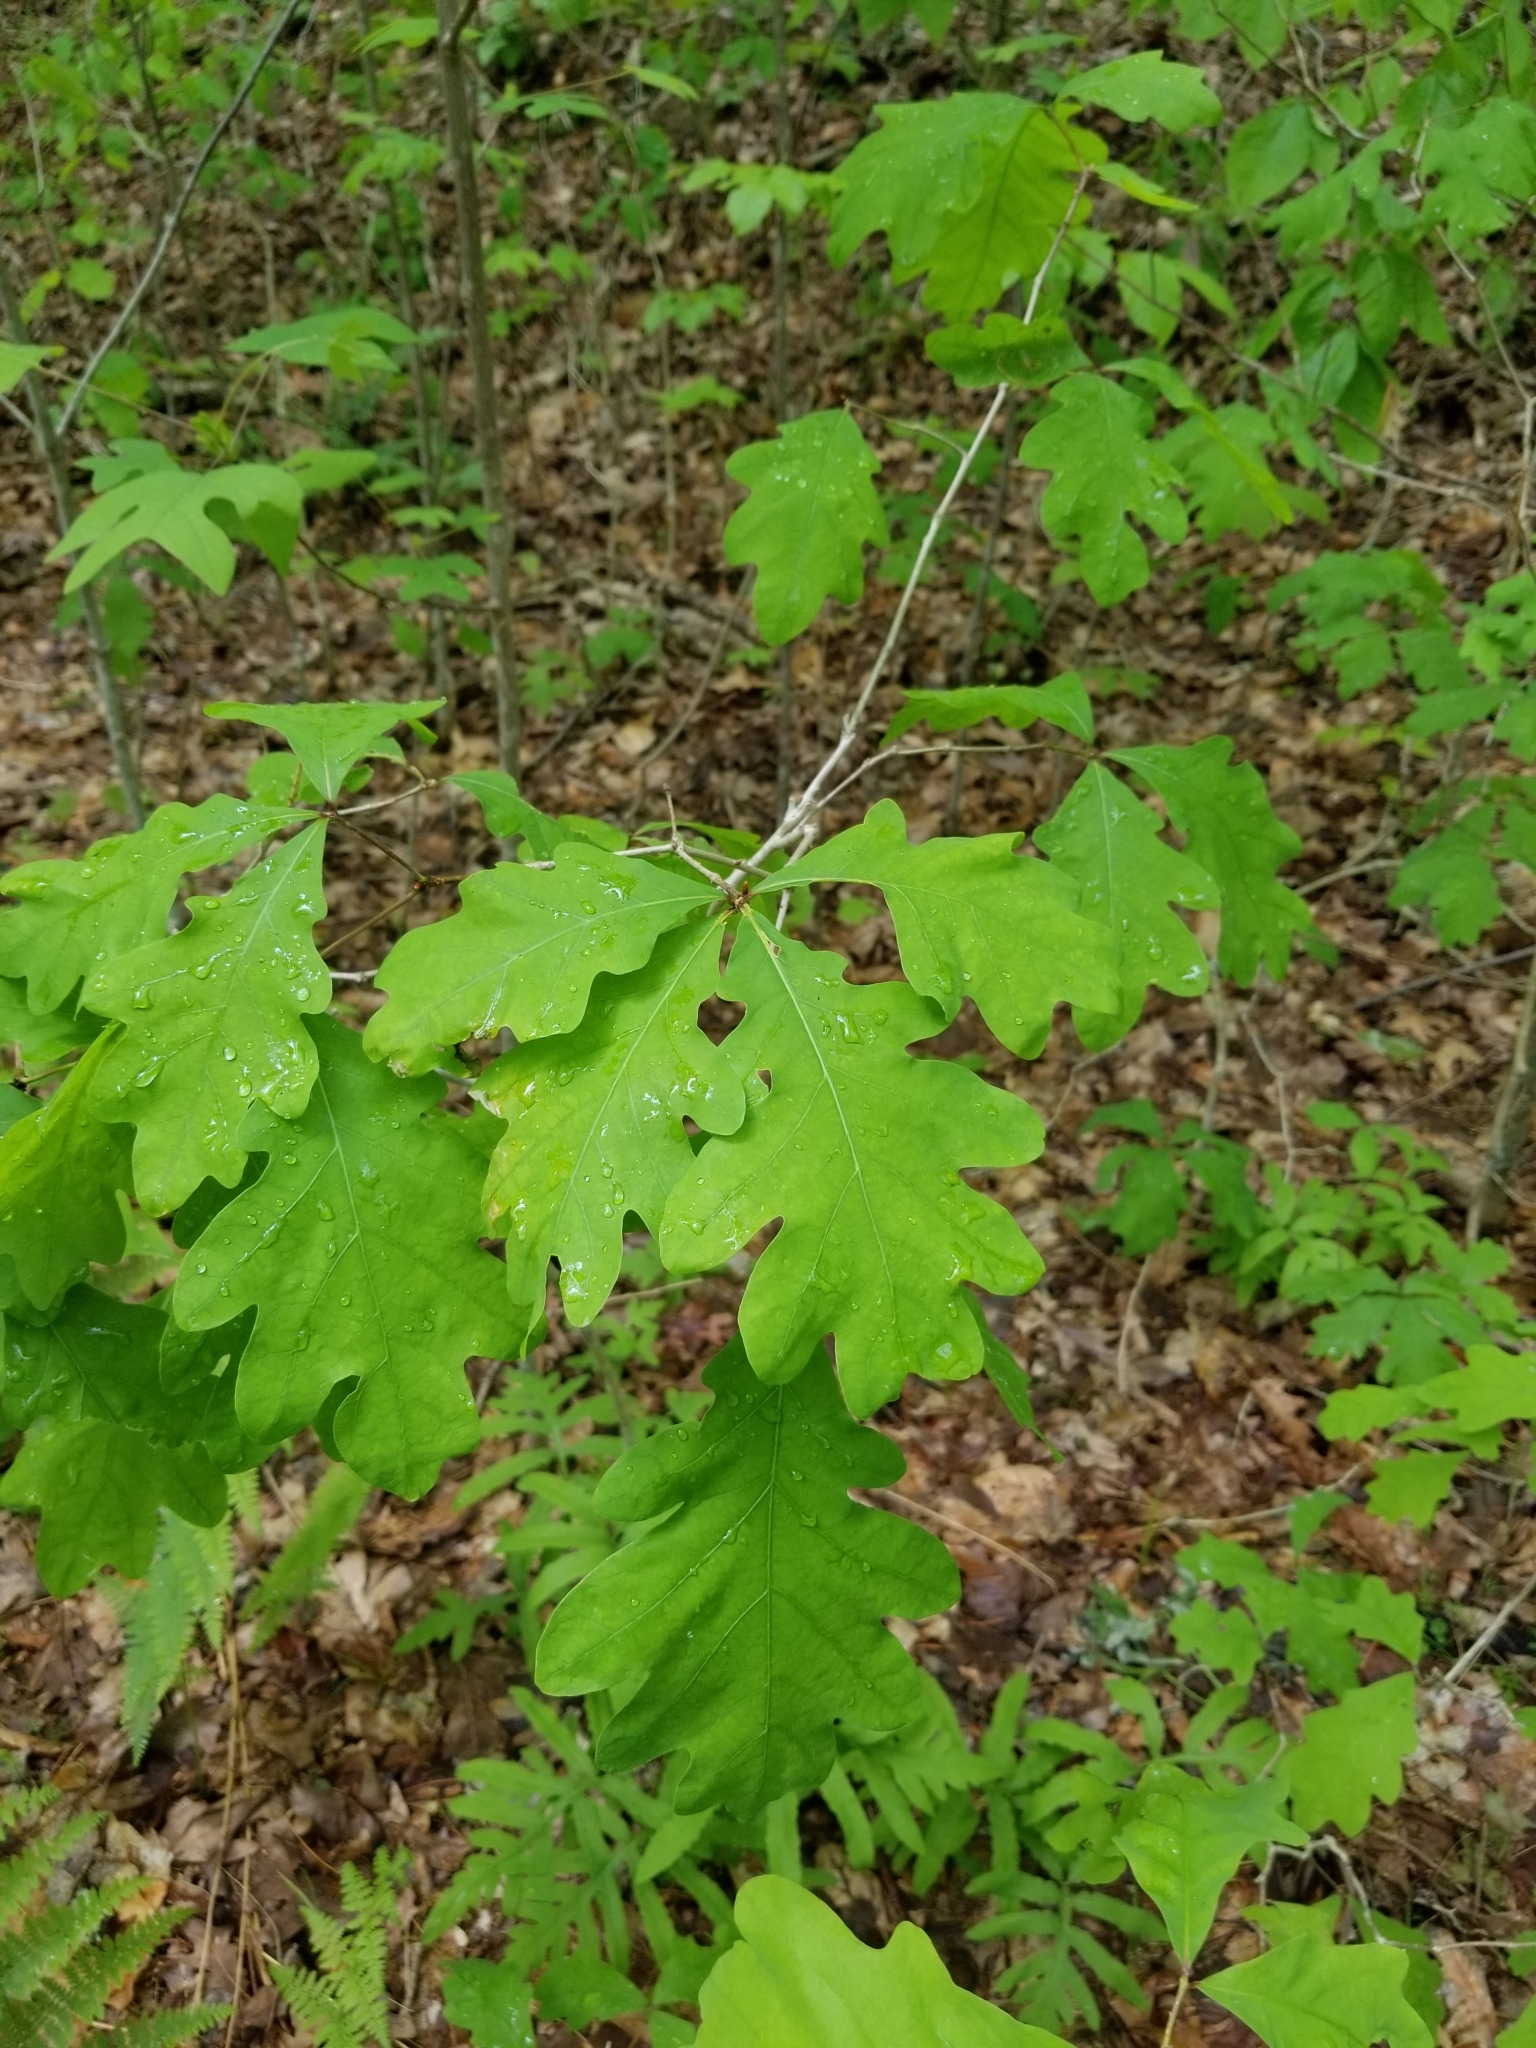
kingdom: Plantae
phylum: Tracheophyta
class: Magnoliopsida
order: Fagales
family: Fagaceae
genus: Quercus
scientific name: Quercus alba
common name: White oak
